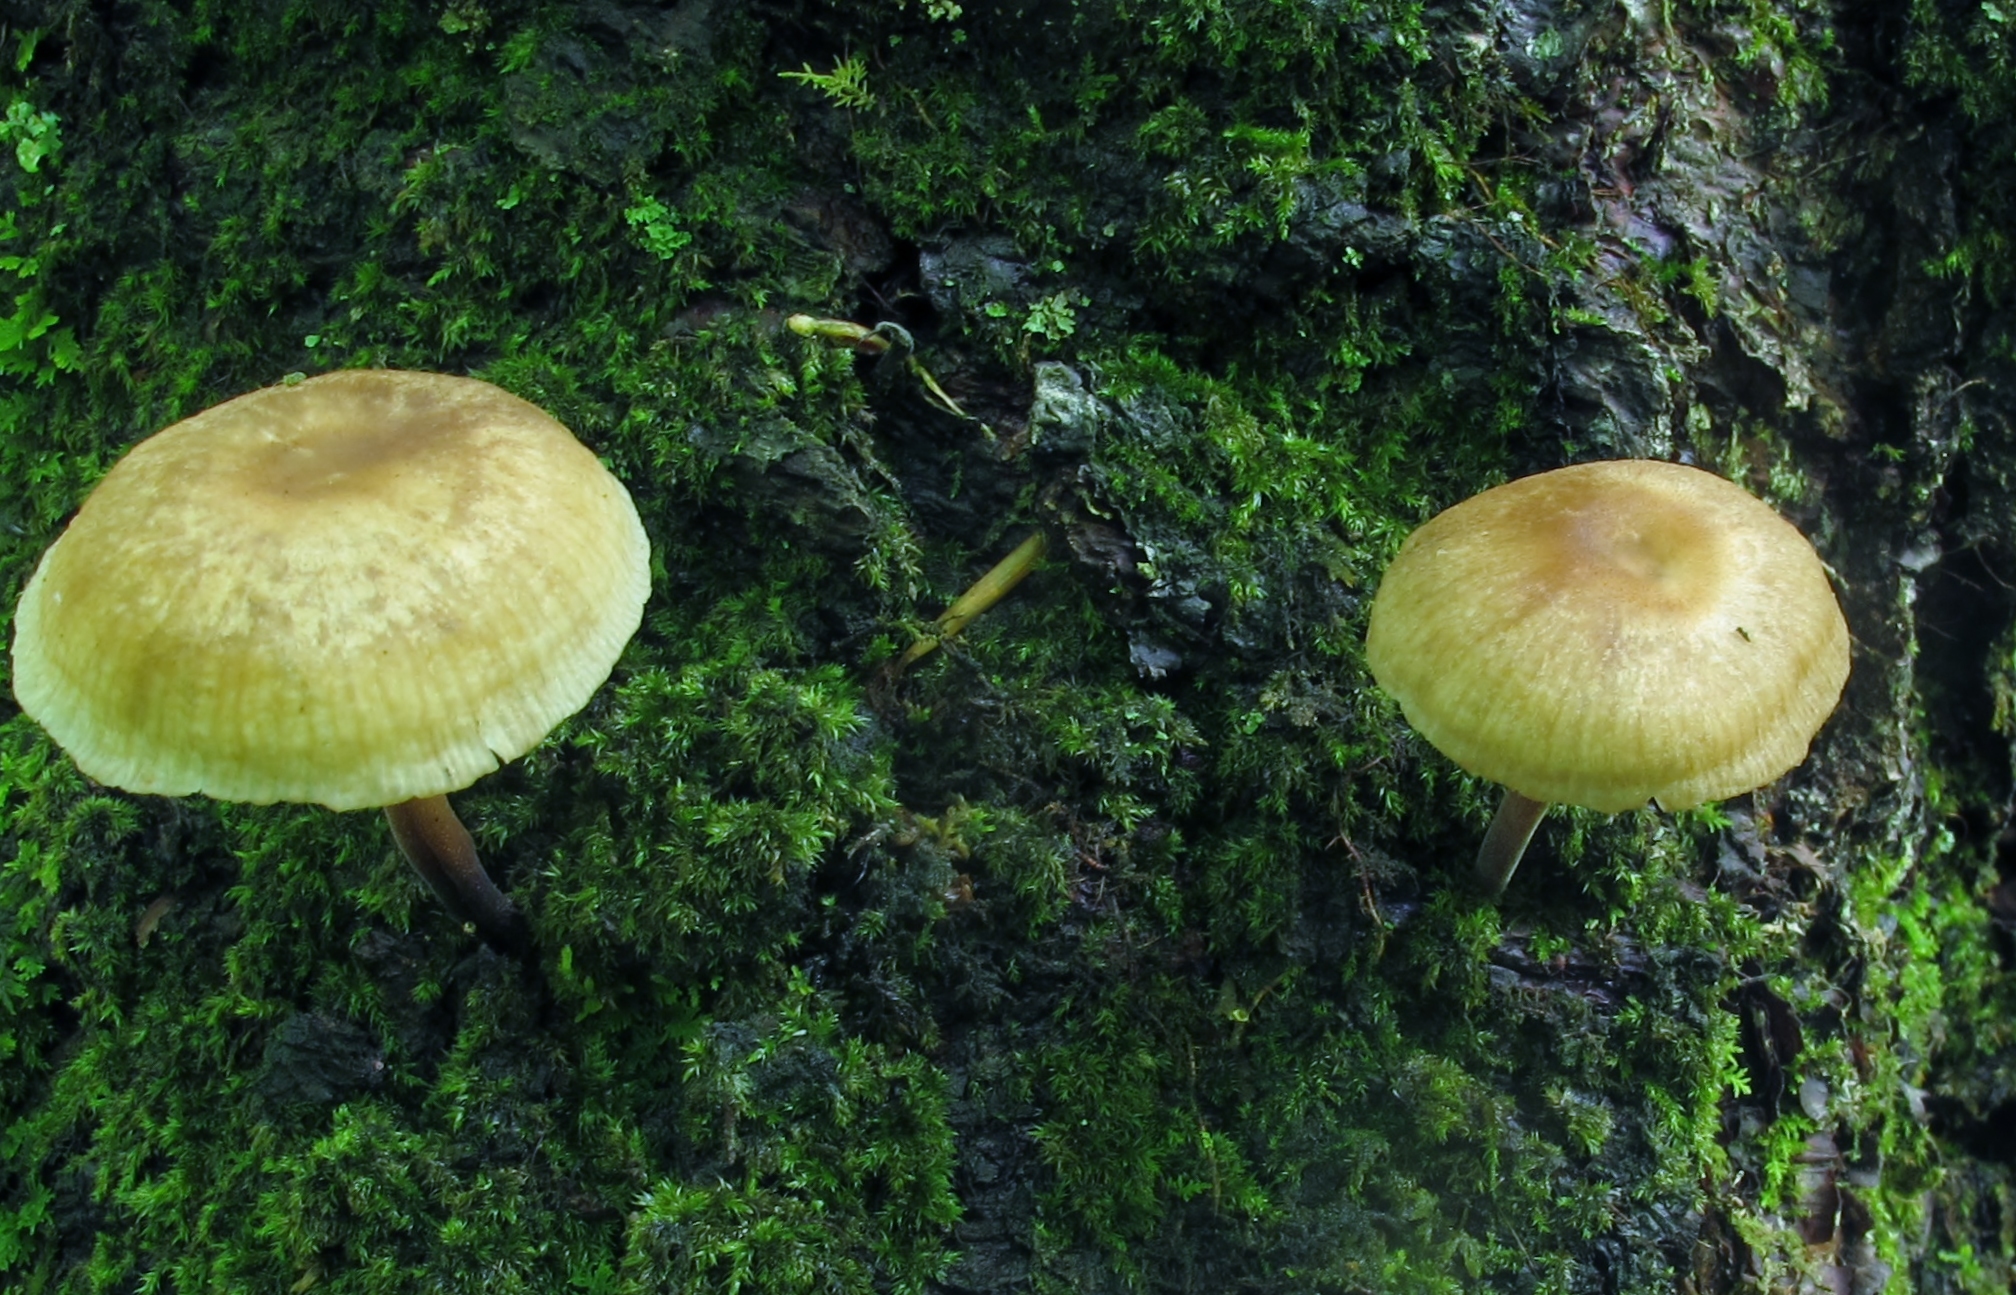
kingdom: Fungi
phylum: Basidiomycota
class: Agaricomycetes
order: Agaricales
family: Omphalotaceae
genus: Collybiopsis
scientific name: Collybiopsis dichroa
